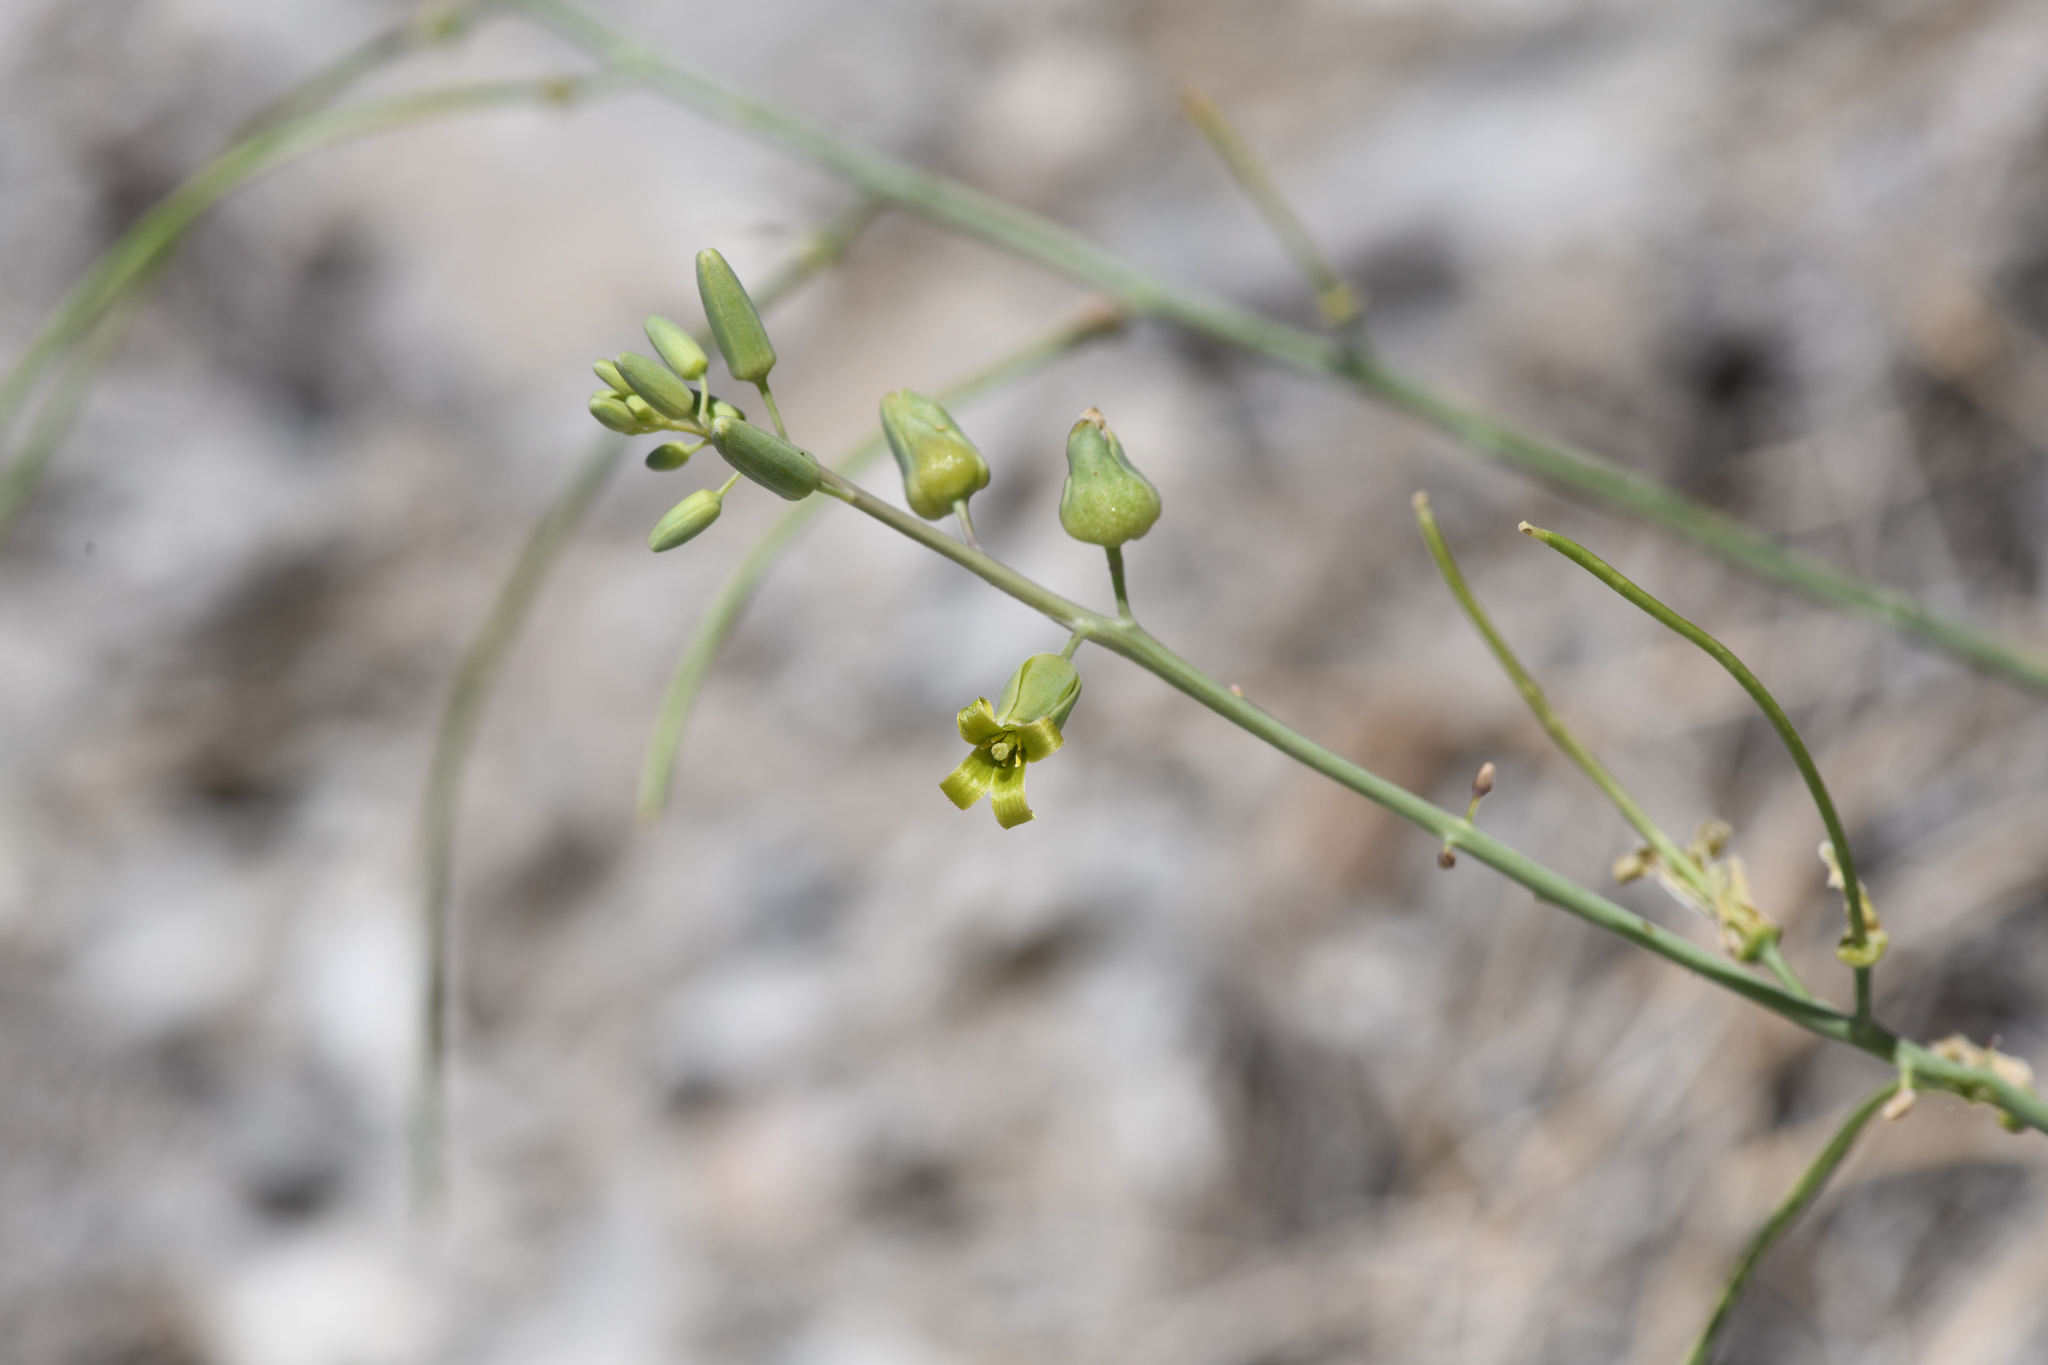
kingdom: Plantae
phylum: Tracheophyta
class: Magnoliopsida
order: Brassicales
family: Brassicaceae
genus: Streptanthus
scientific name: Streptanthus glaucus
